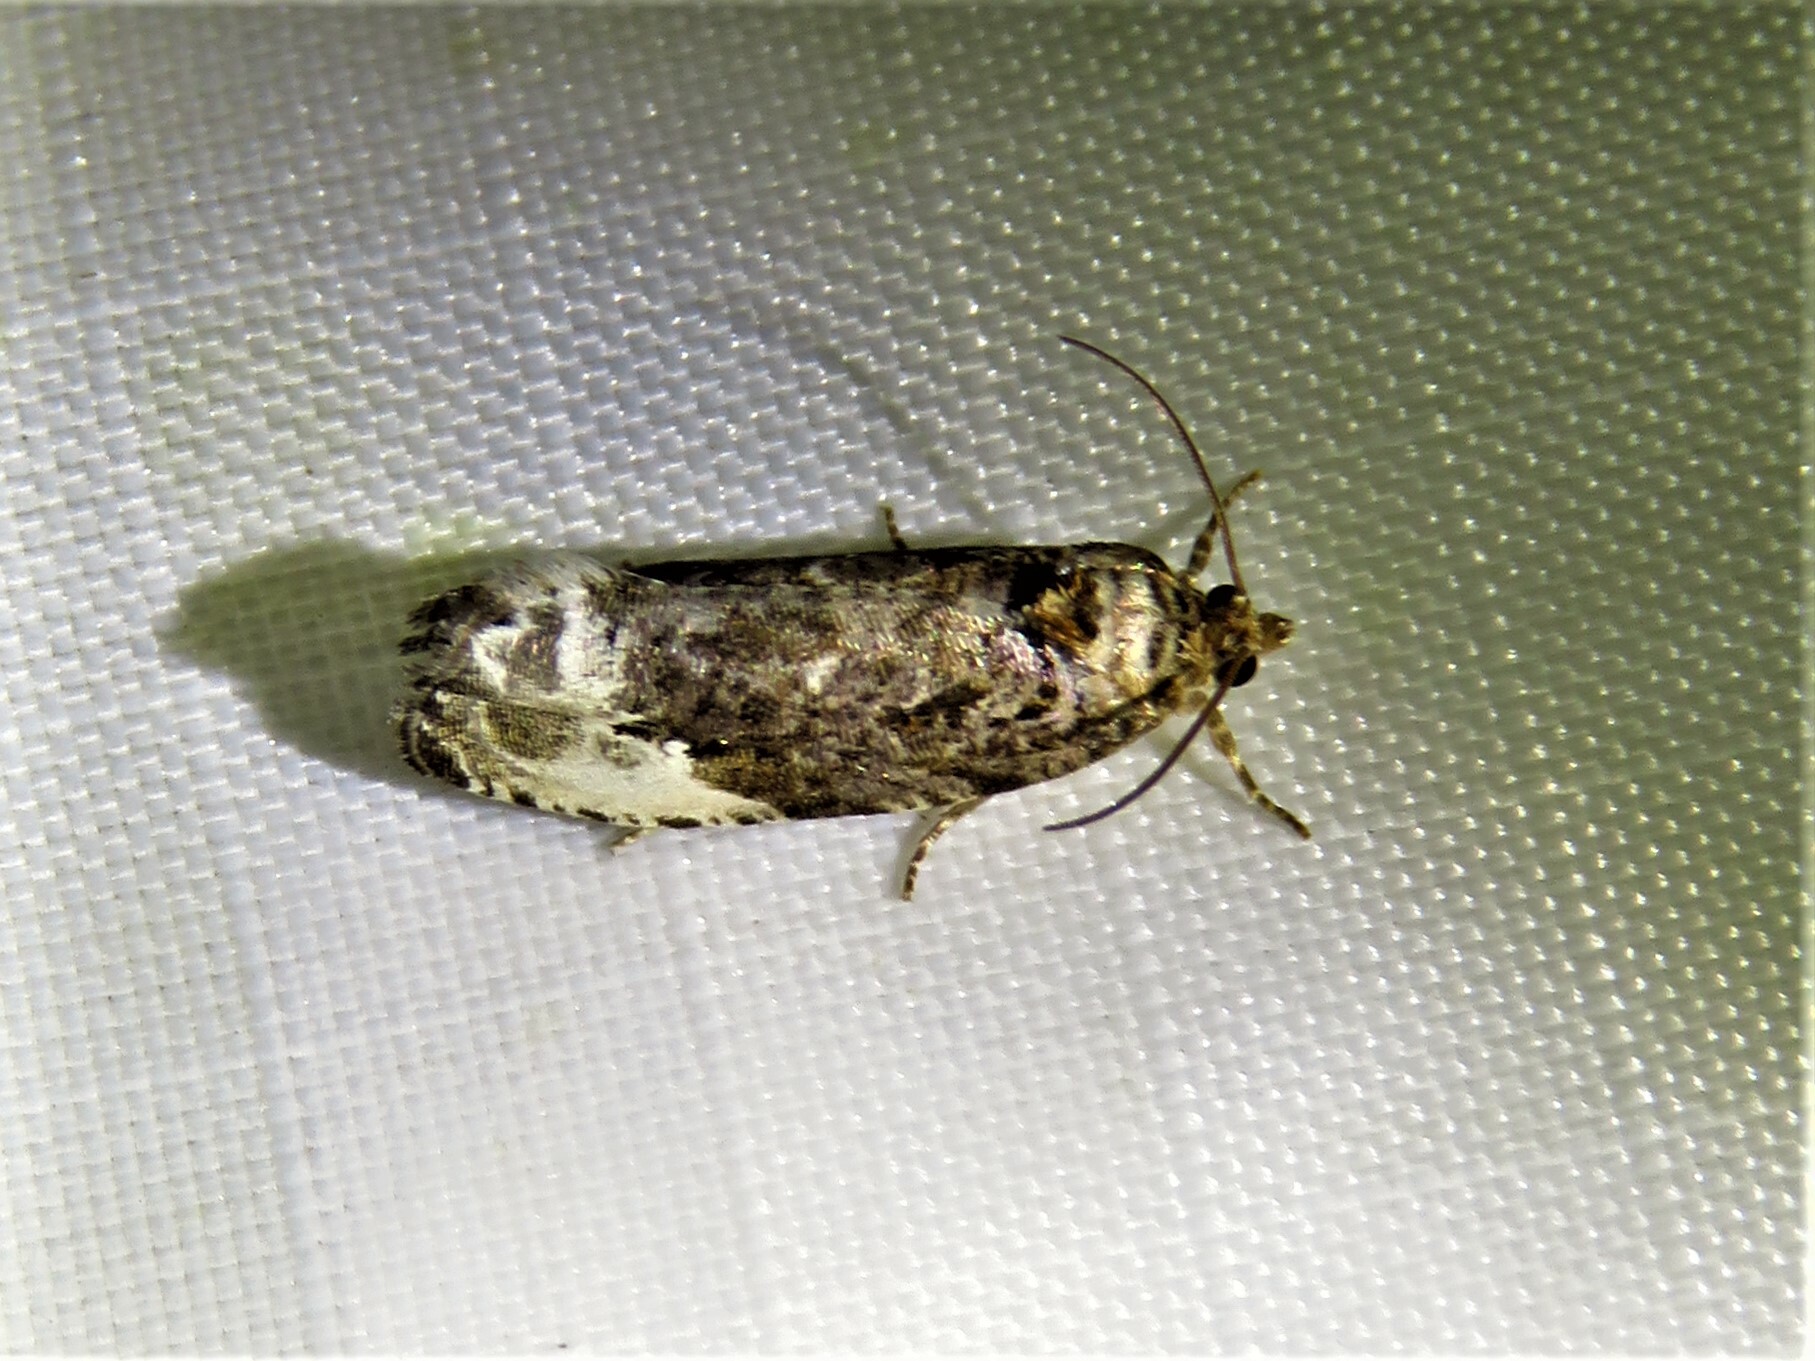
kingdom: Animalia
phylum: Arthropoda
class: Insecta
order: Lepidoptera
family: Tortricidae
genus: Hedya
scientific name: Hedya nubiferana
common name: Marbled orchard tortrix
